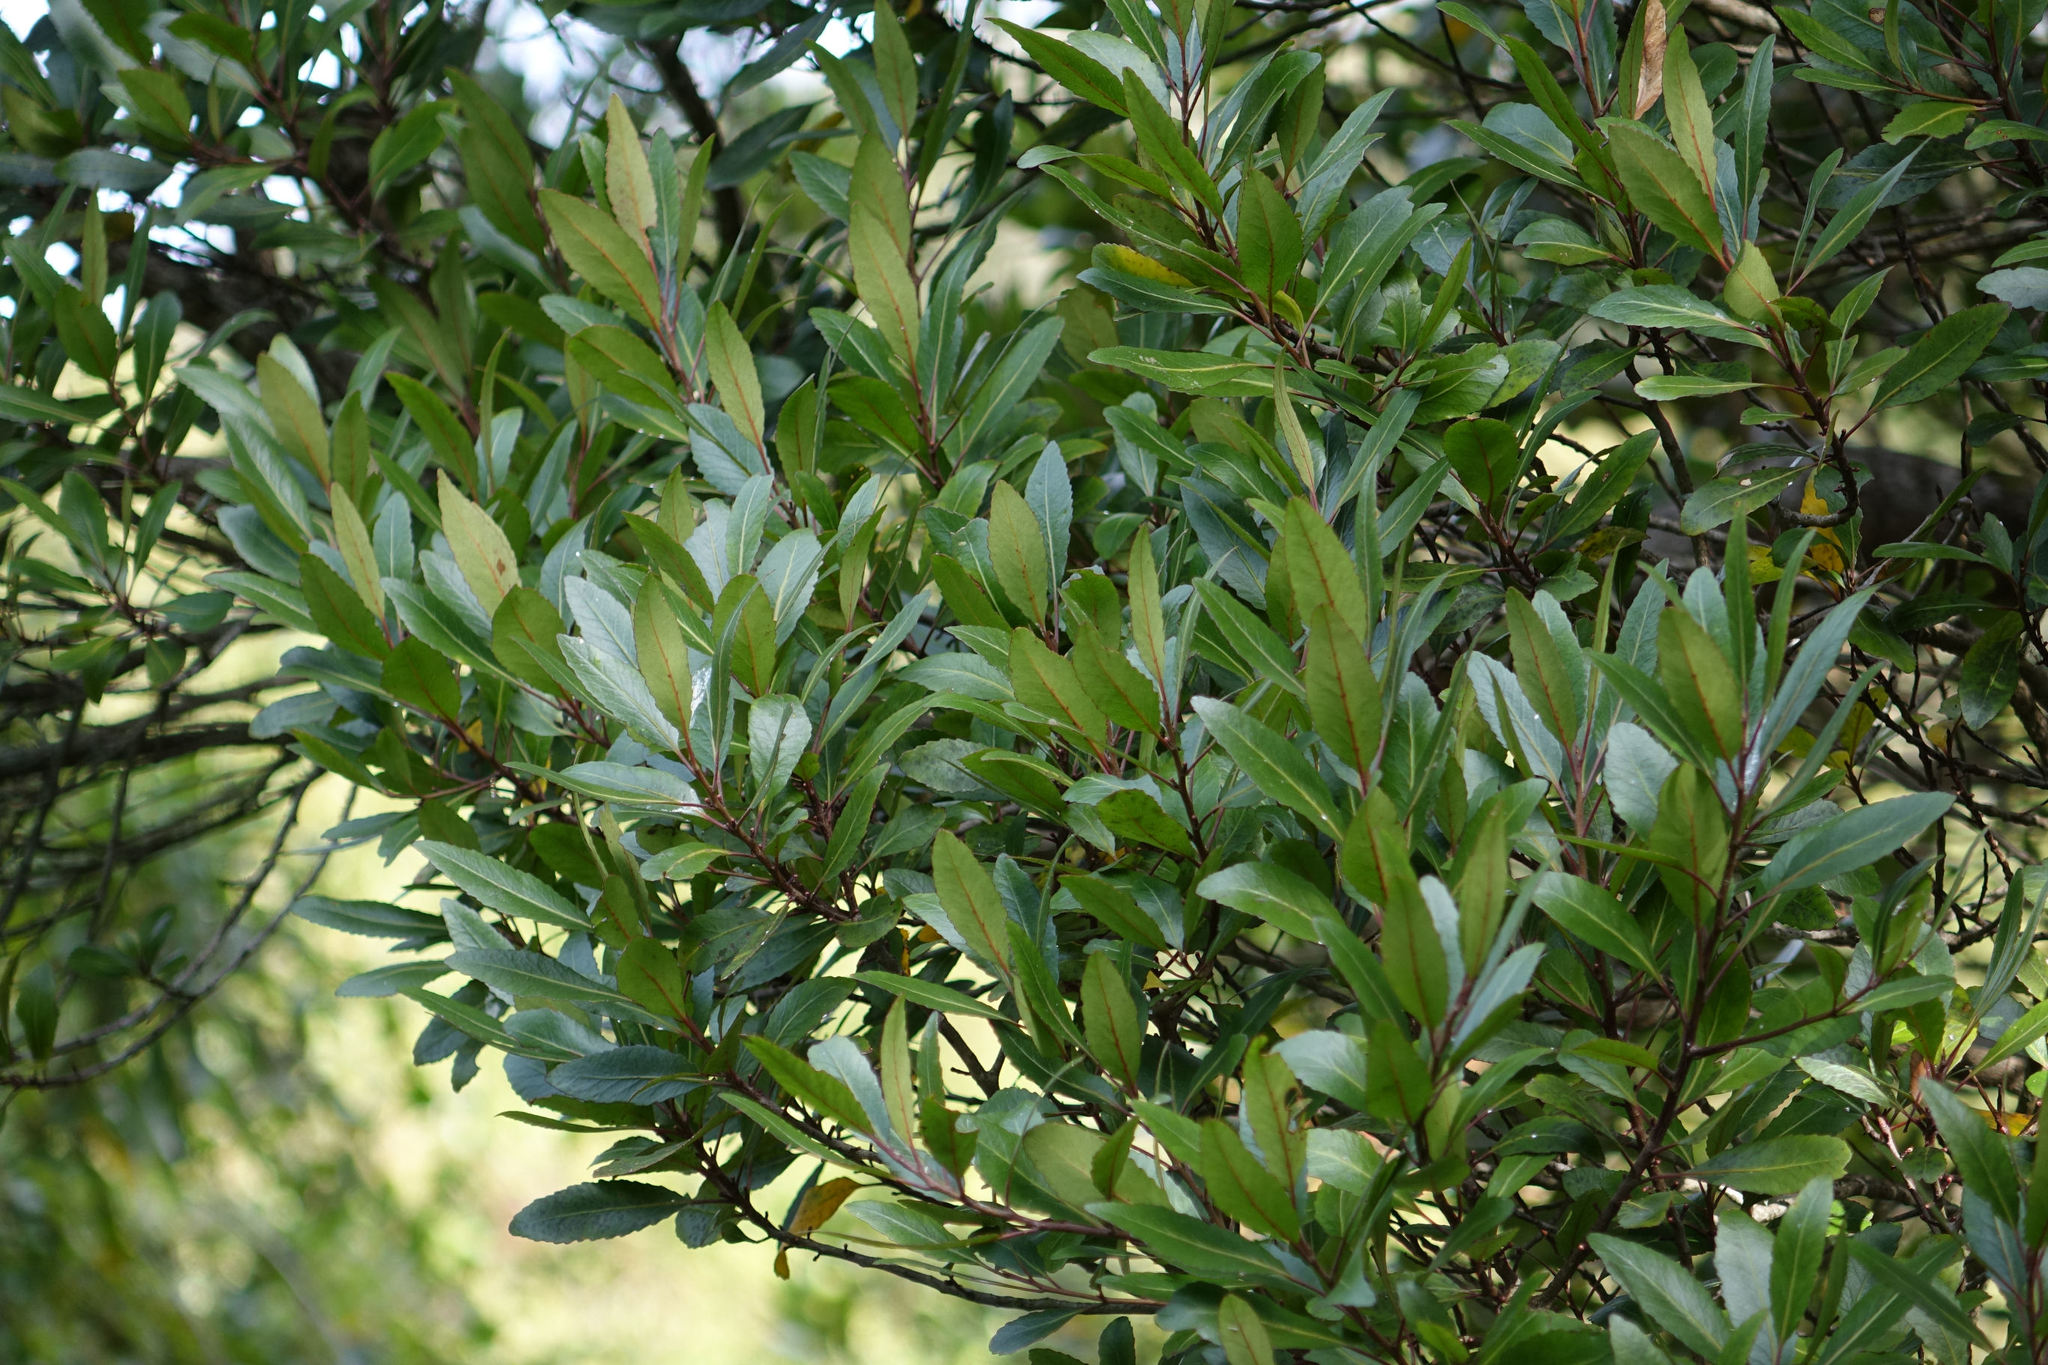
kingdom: Plantae
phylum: Tracheophyta
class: Magnoliopsida
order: Oxalidales
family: Elaeocarpaceae
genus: Elaeocarpus
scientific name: Elaeocarpus hookerianus
